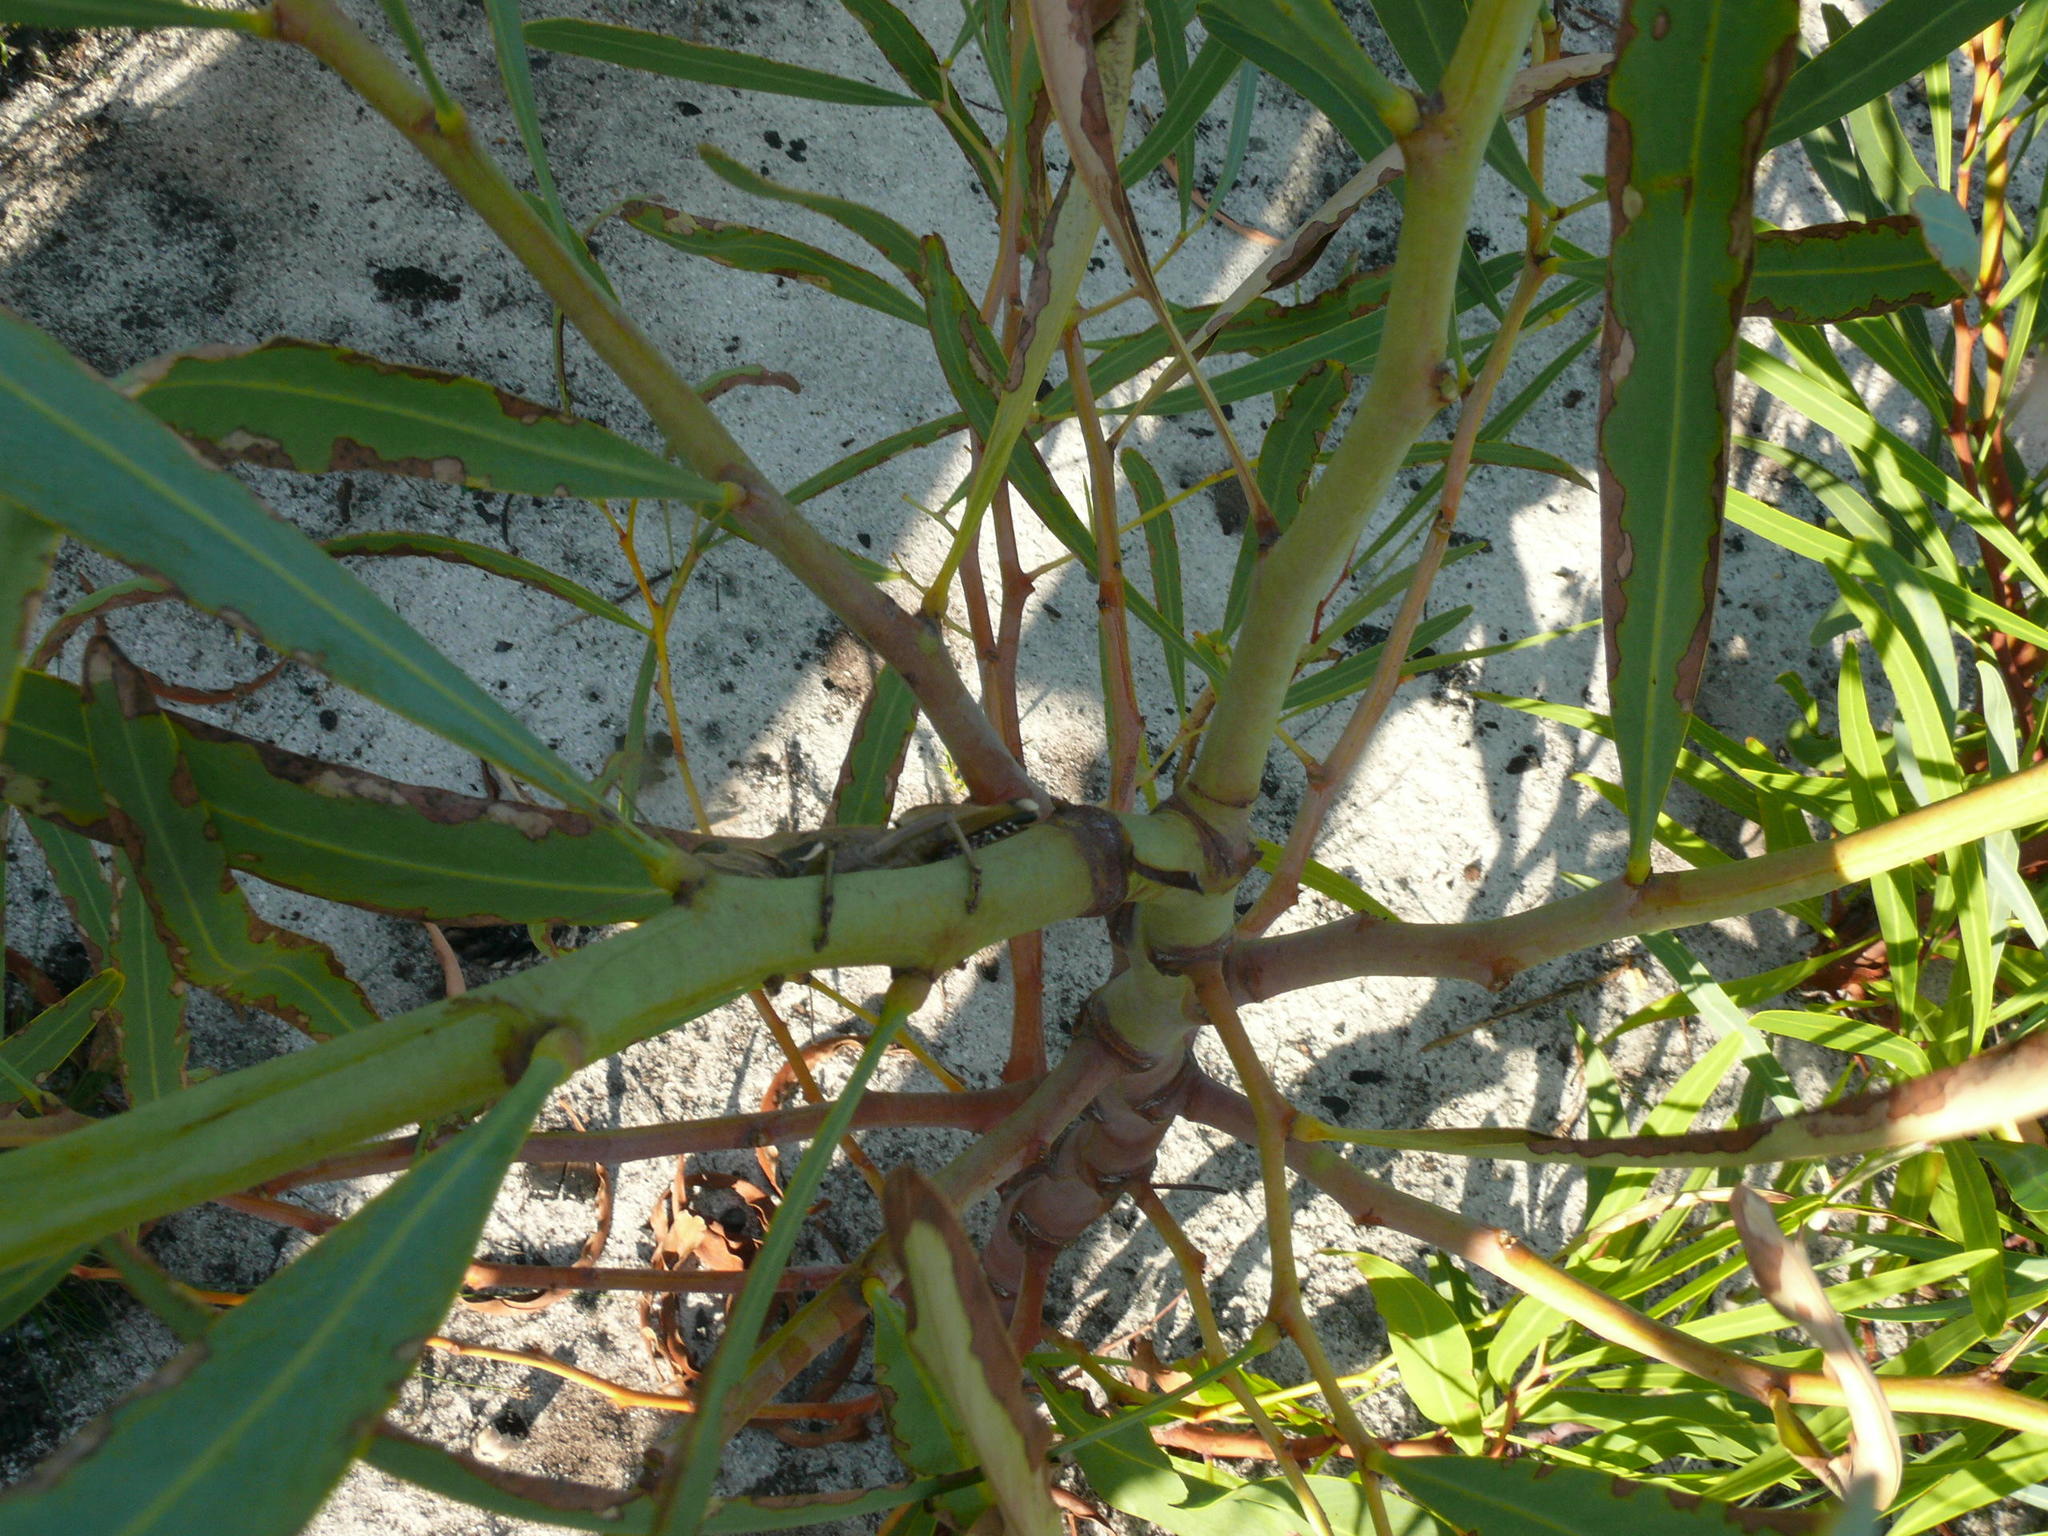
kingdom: Plantae
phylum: Tracheophyta
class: Magnoliopsida
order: Fabales
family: Fabaceae
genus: Acacia
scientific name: Acacia saligna
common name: Orange wattle
